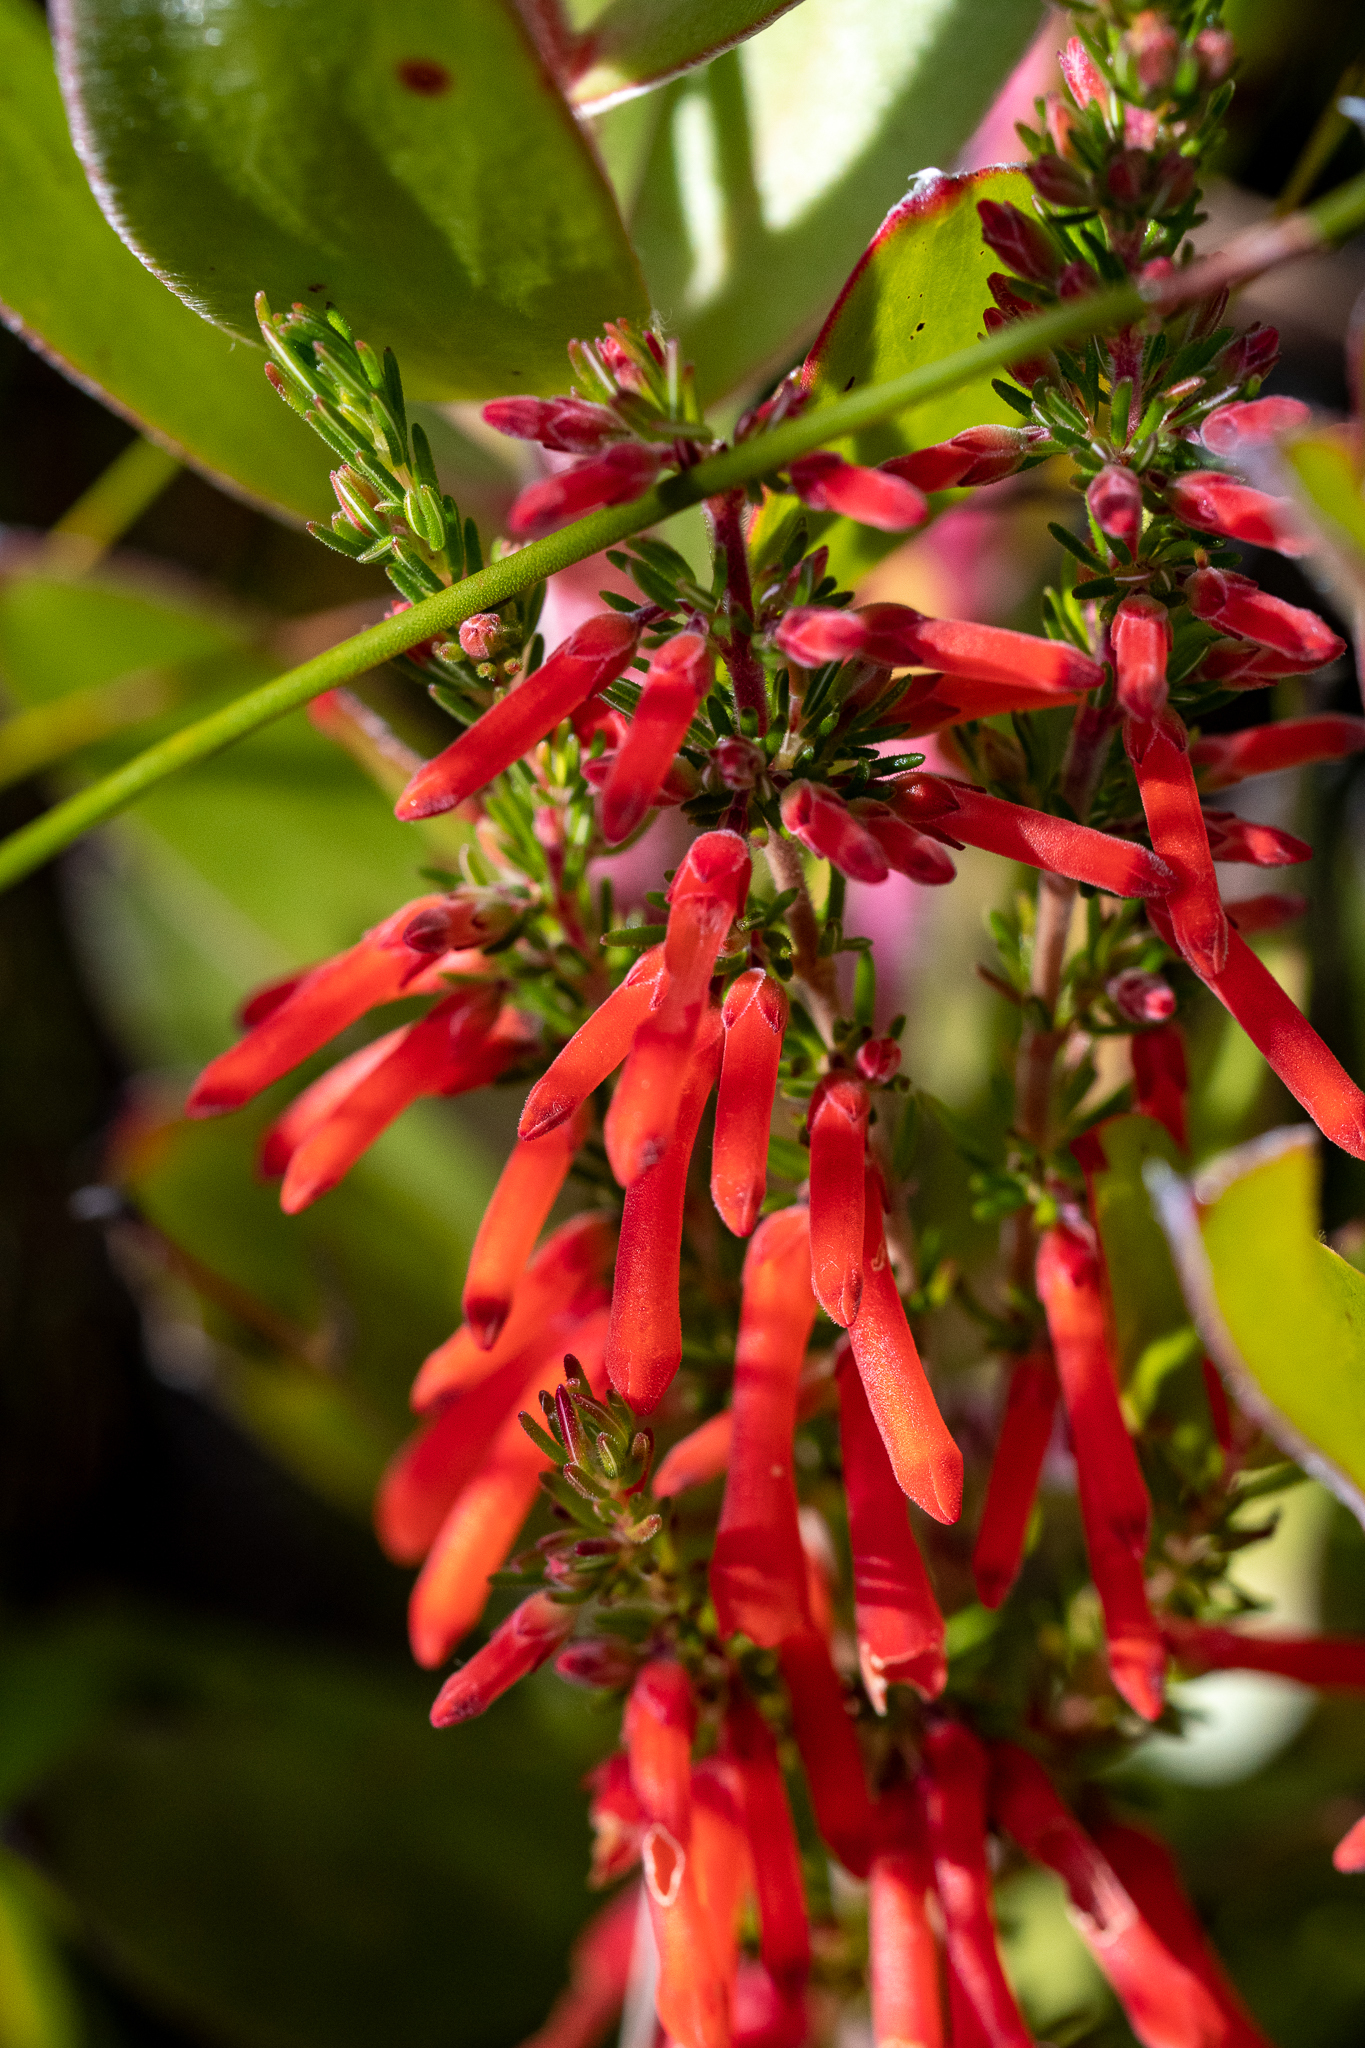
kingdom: Plantae
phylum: Tracheophyta
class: Magnoliopsida
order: Ericales
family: Ericaceae
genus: Erica
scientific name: Erica pillansii
